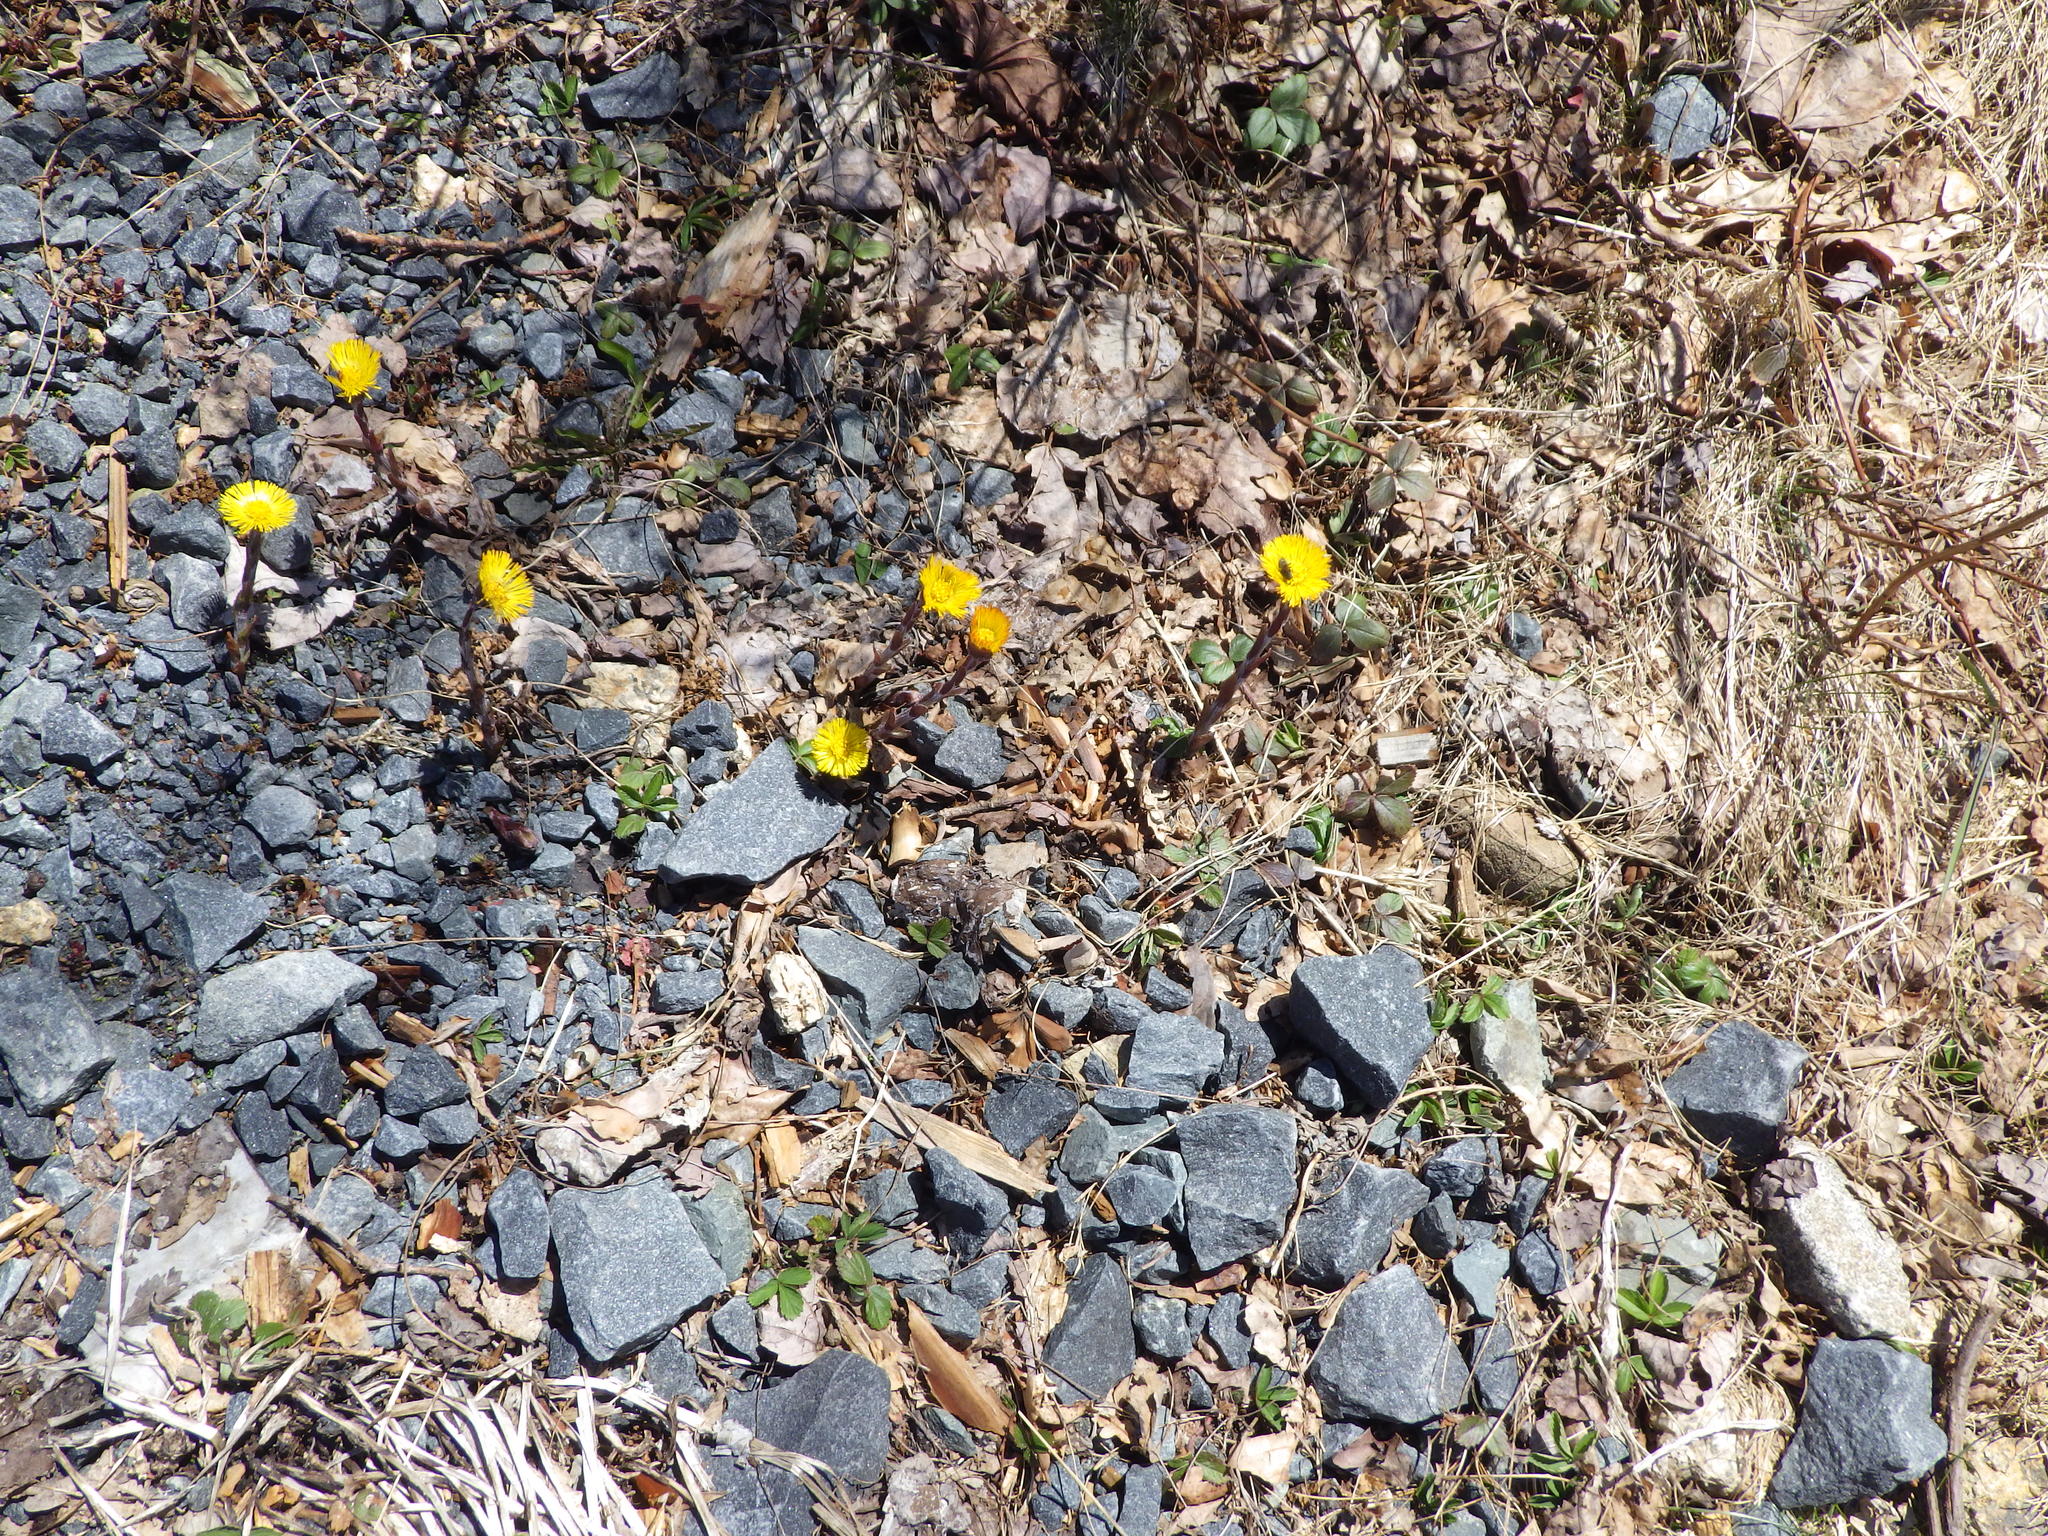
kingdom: Plantae
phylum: Tracheophyta
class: Magnoliopsida
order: Asterales
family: Asteraceae
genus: Tussilago
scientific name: Tussilago farfara
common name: Coltsfoot
